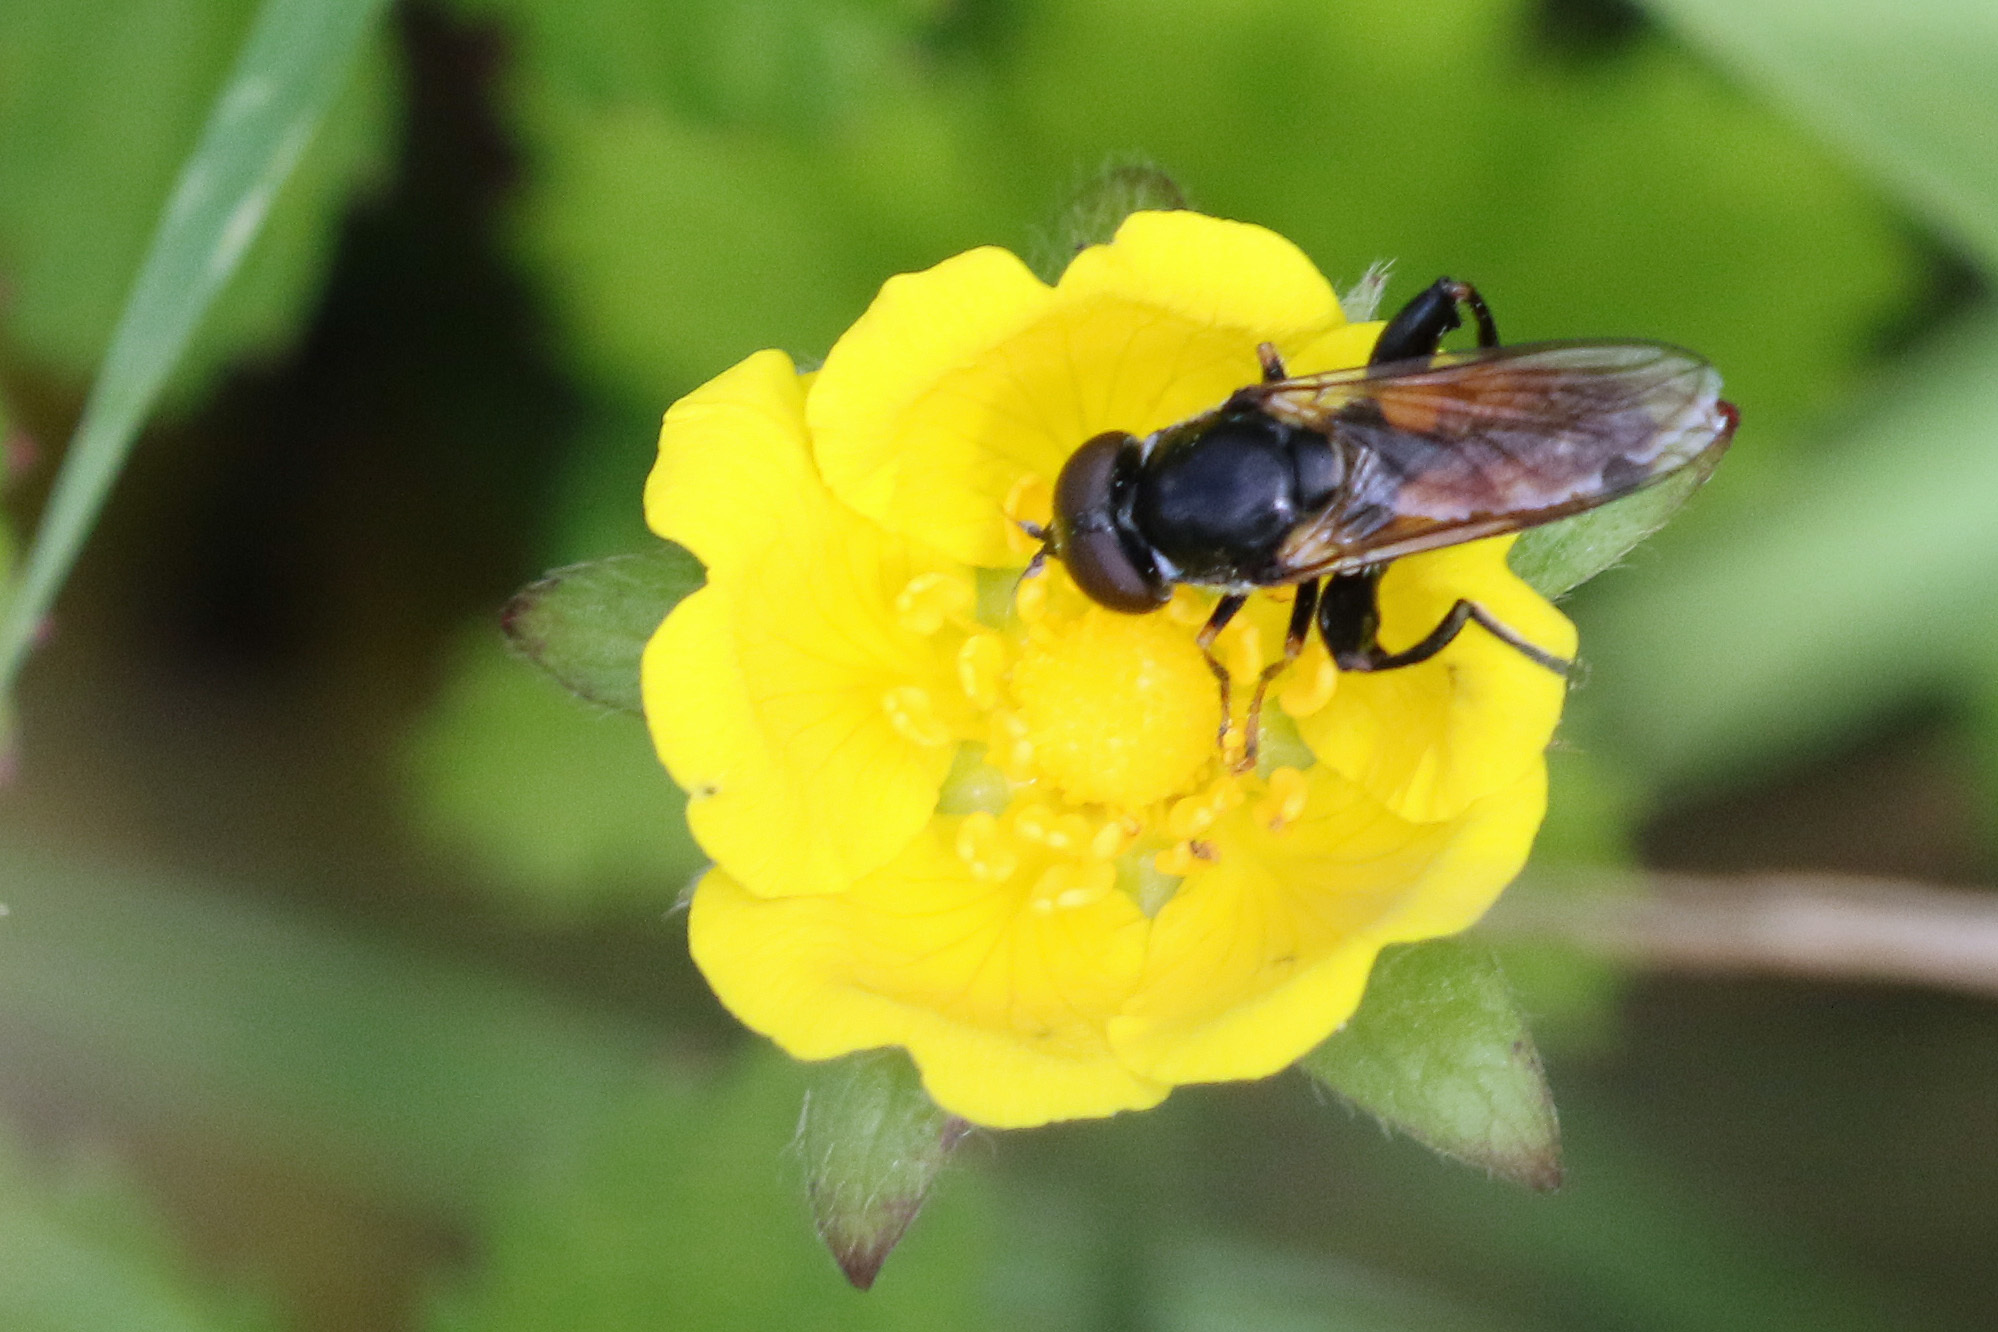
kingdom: Animalia
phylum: Arthropoda
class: Insecta
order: Diptera
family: Syrphidae
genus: Tropidia
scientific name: Tropidia scita
